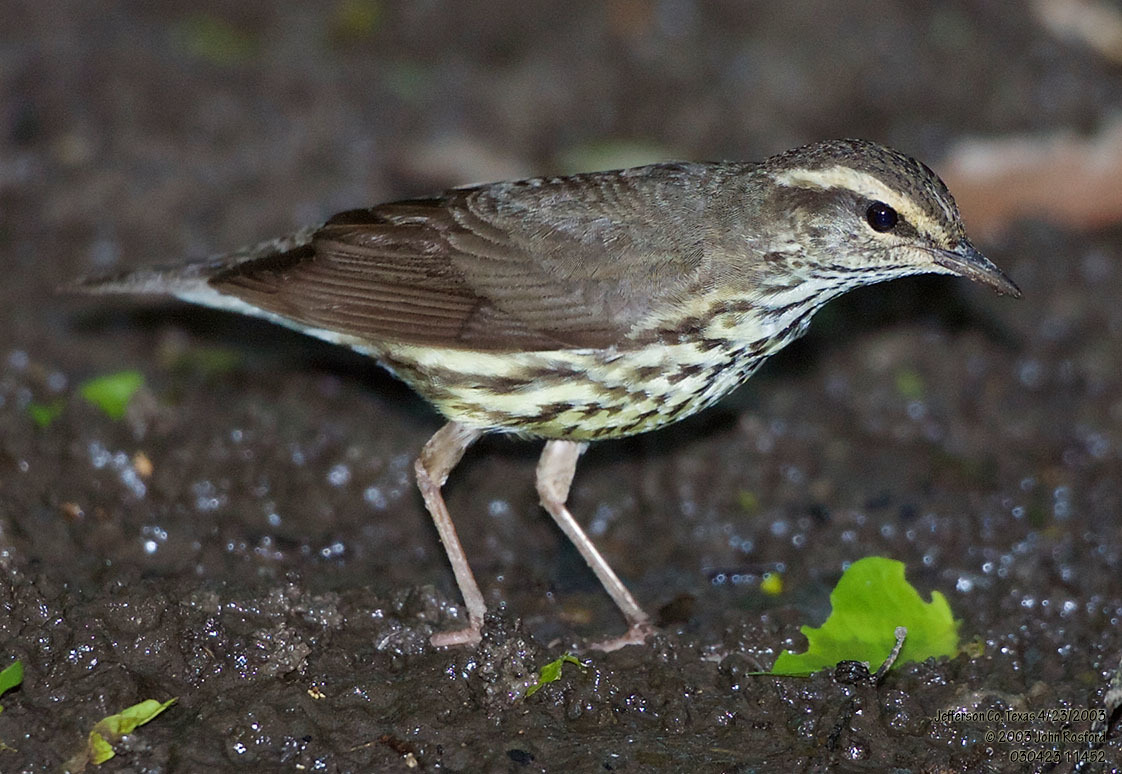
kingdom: Animalia
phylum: Chordata
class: Aves
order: Passeriformes
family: Parulidae
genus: Parkesia
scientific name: Parkesia noveboracensis
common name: Northern waterthrush
